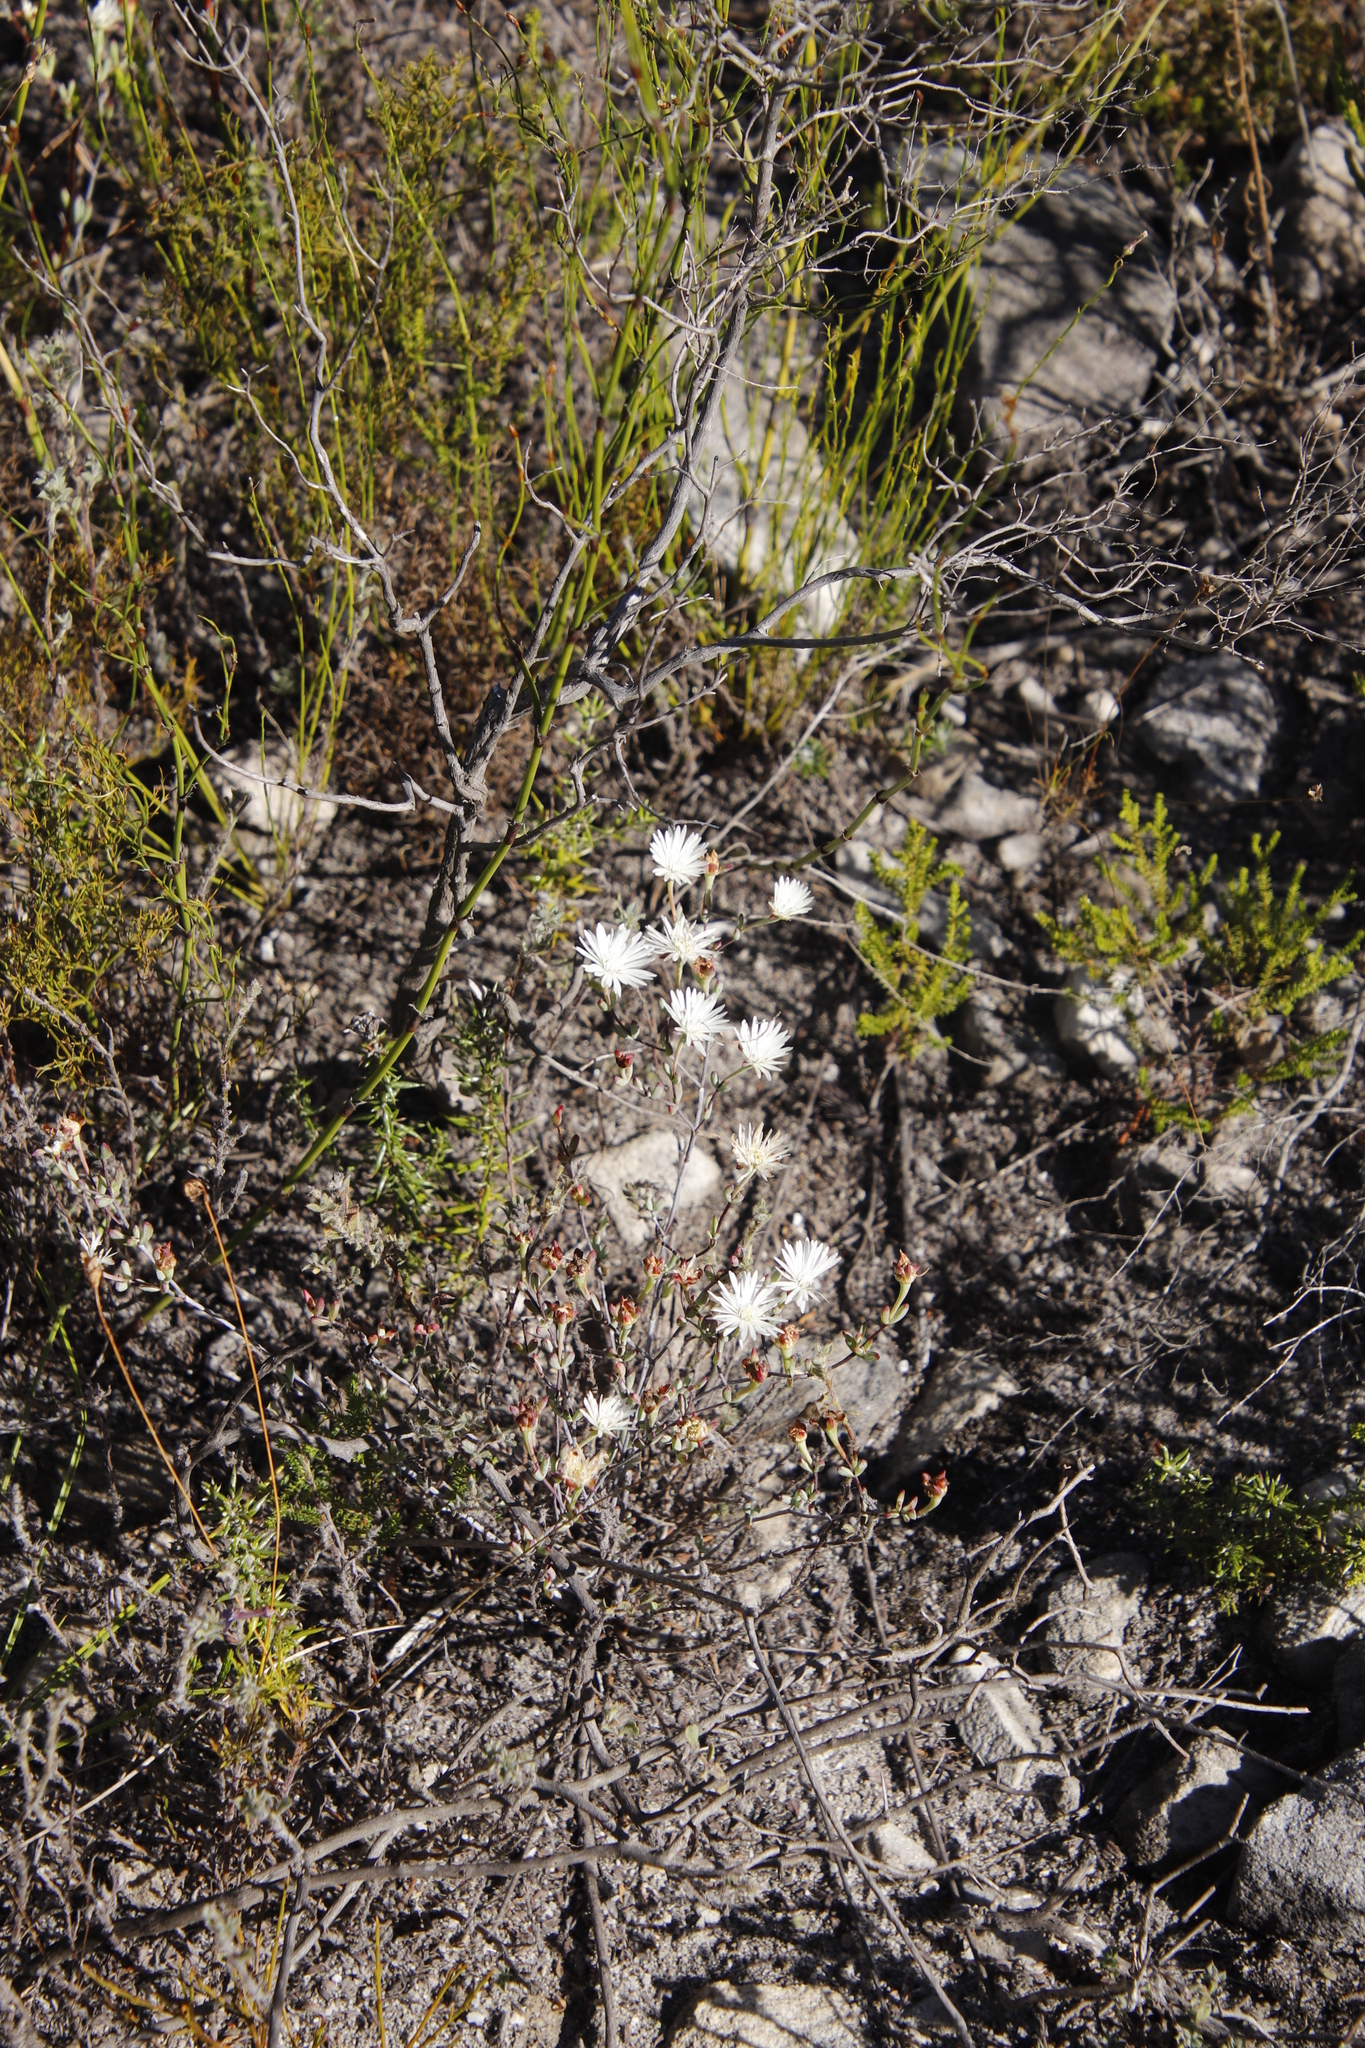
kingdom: Plantae
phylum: Tracheophyta
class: Magnoliopsida
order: Caryophyllales
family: Aizoaceae
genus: Lampranthus
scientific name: Lampranthus falcatus
